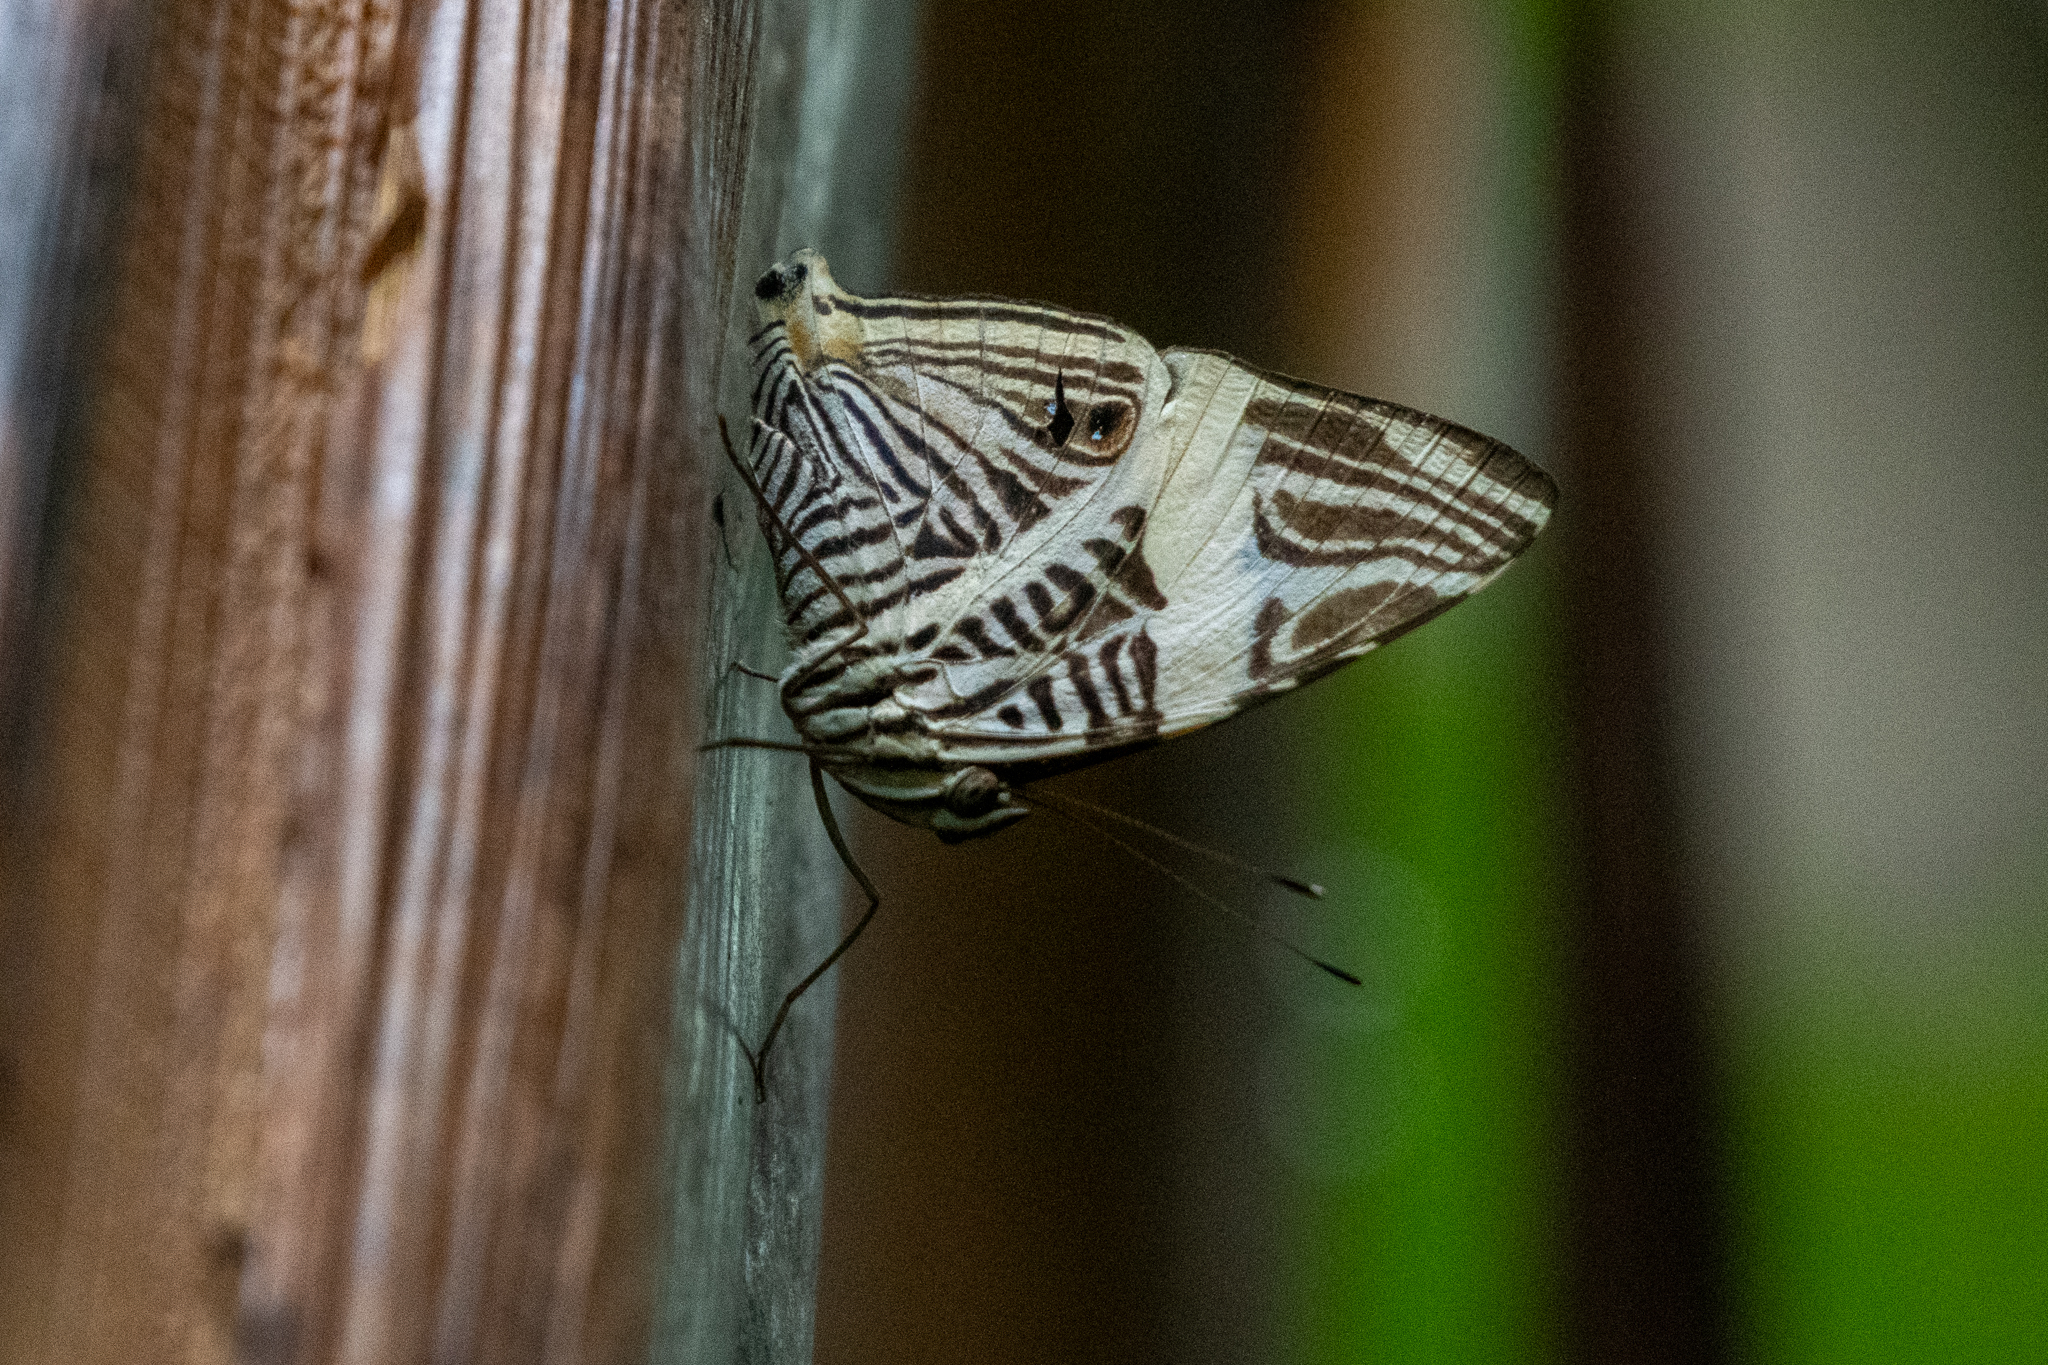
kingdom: Animalia
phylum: Arthropoda
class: Insecta
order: Lepidoptera
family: Nymphalidae
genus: Colobura
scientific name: Colobura dirce
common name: Dirce beauty
